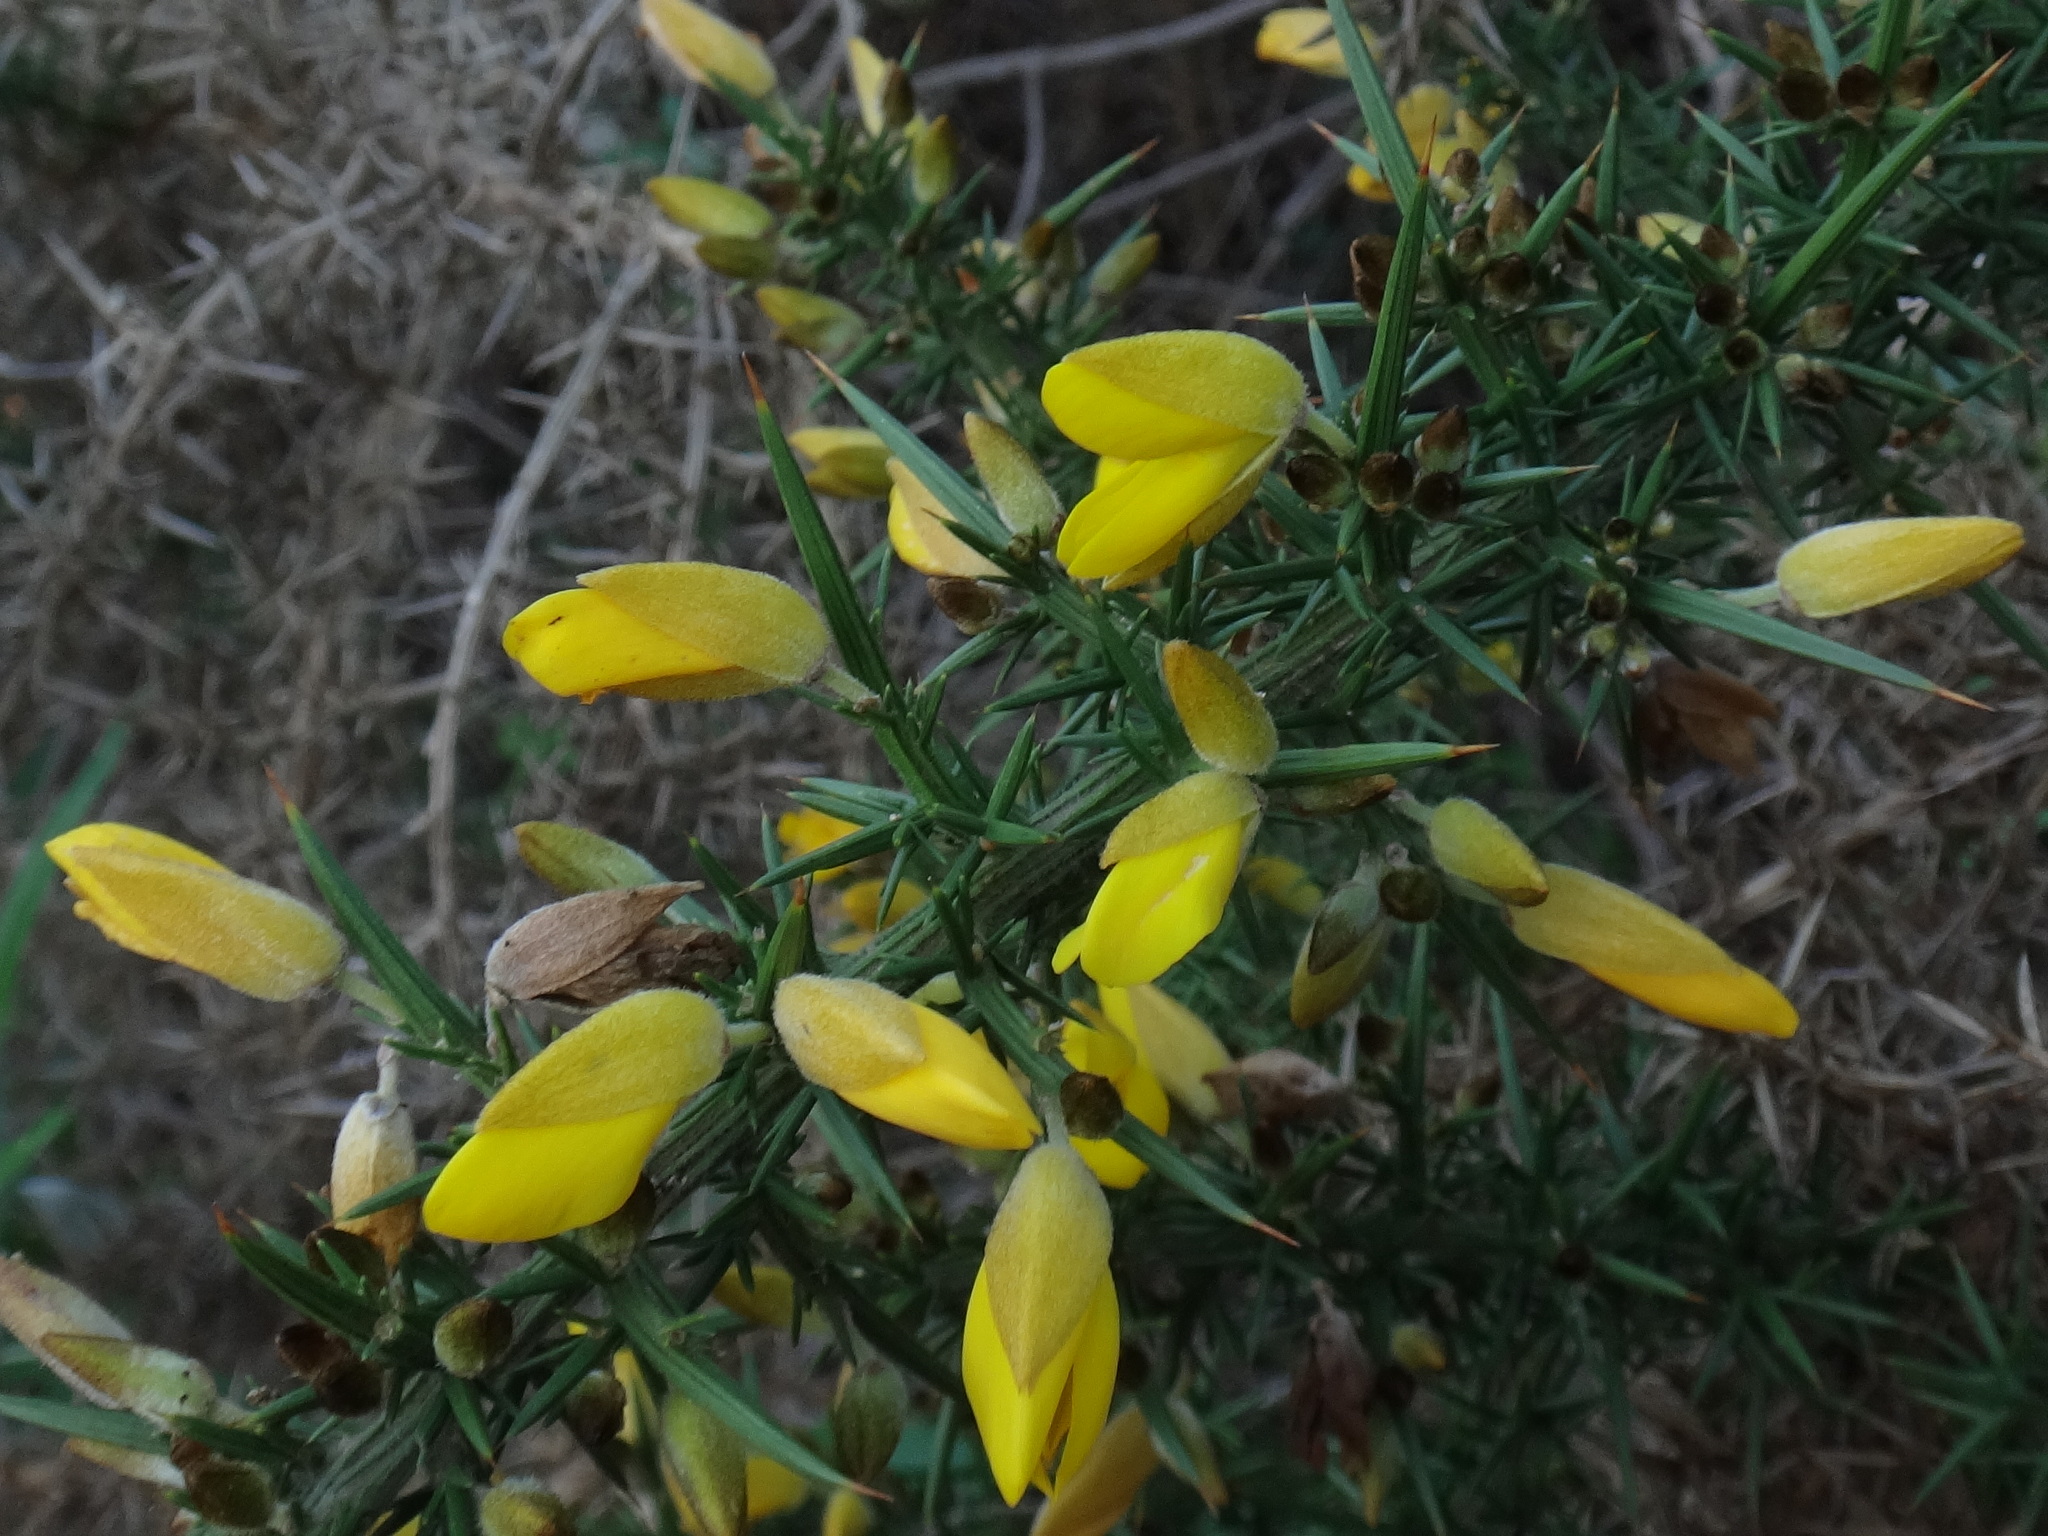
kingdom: Plantae
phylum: Tracheophyta
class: Magnoliopsida
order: Fabales
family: Fabaceae
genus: Ulex
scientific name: Ulex europaeus
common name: Common gorse
